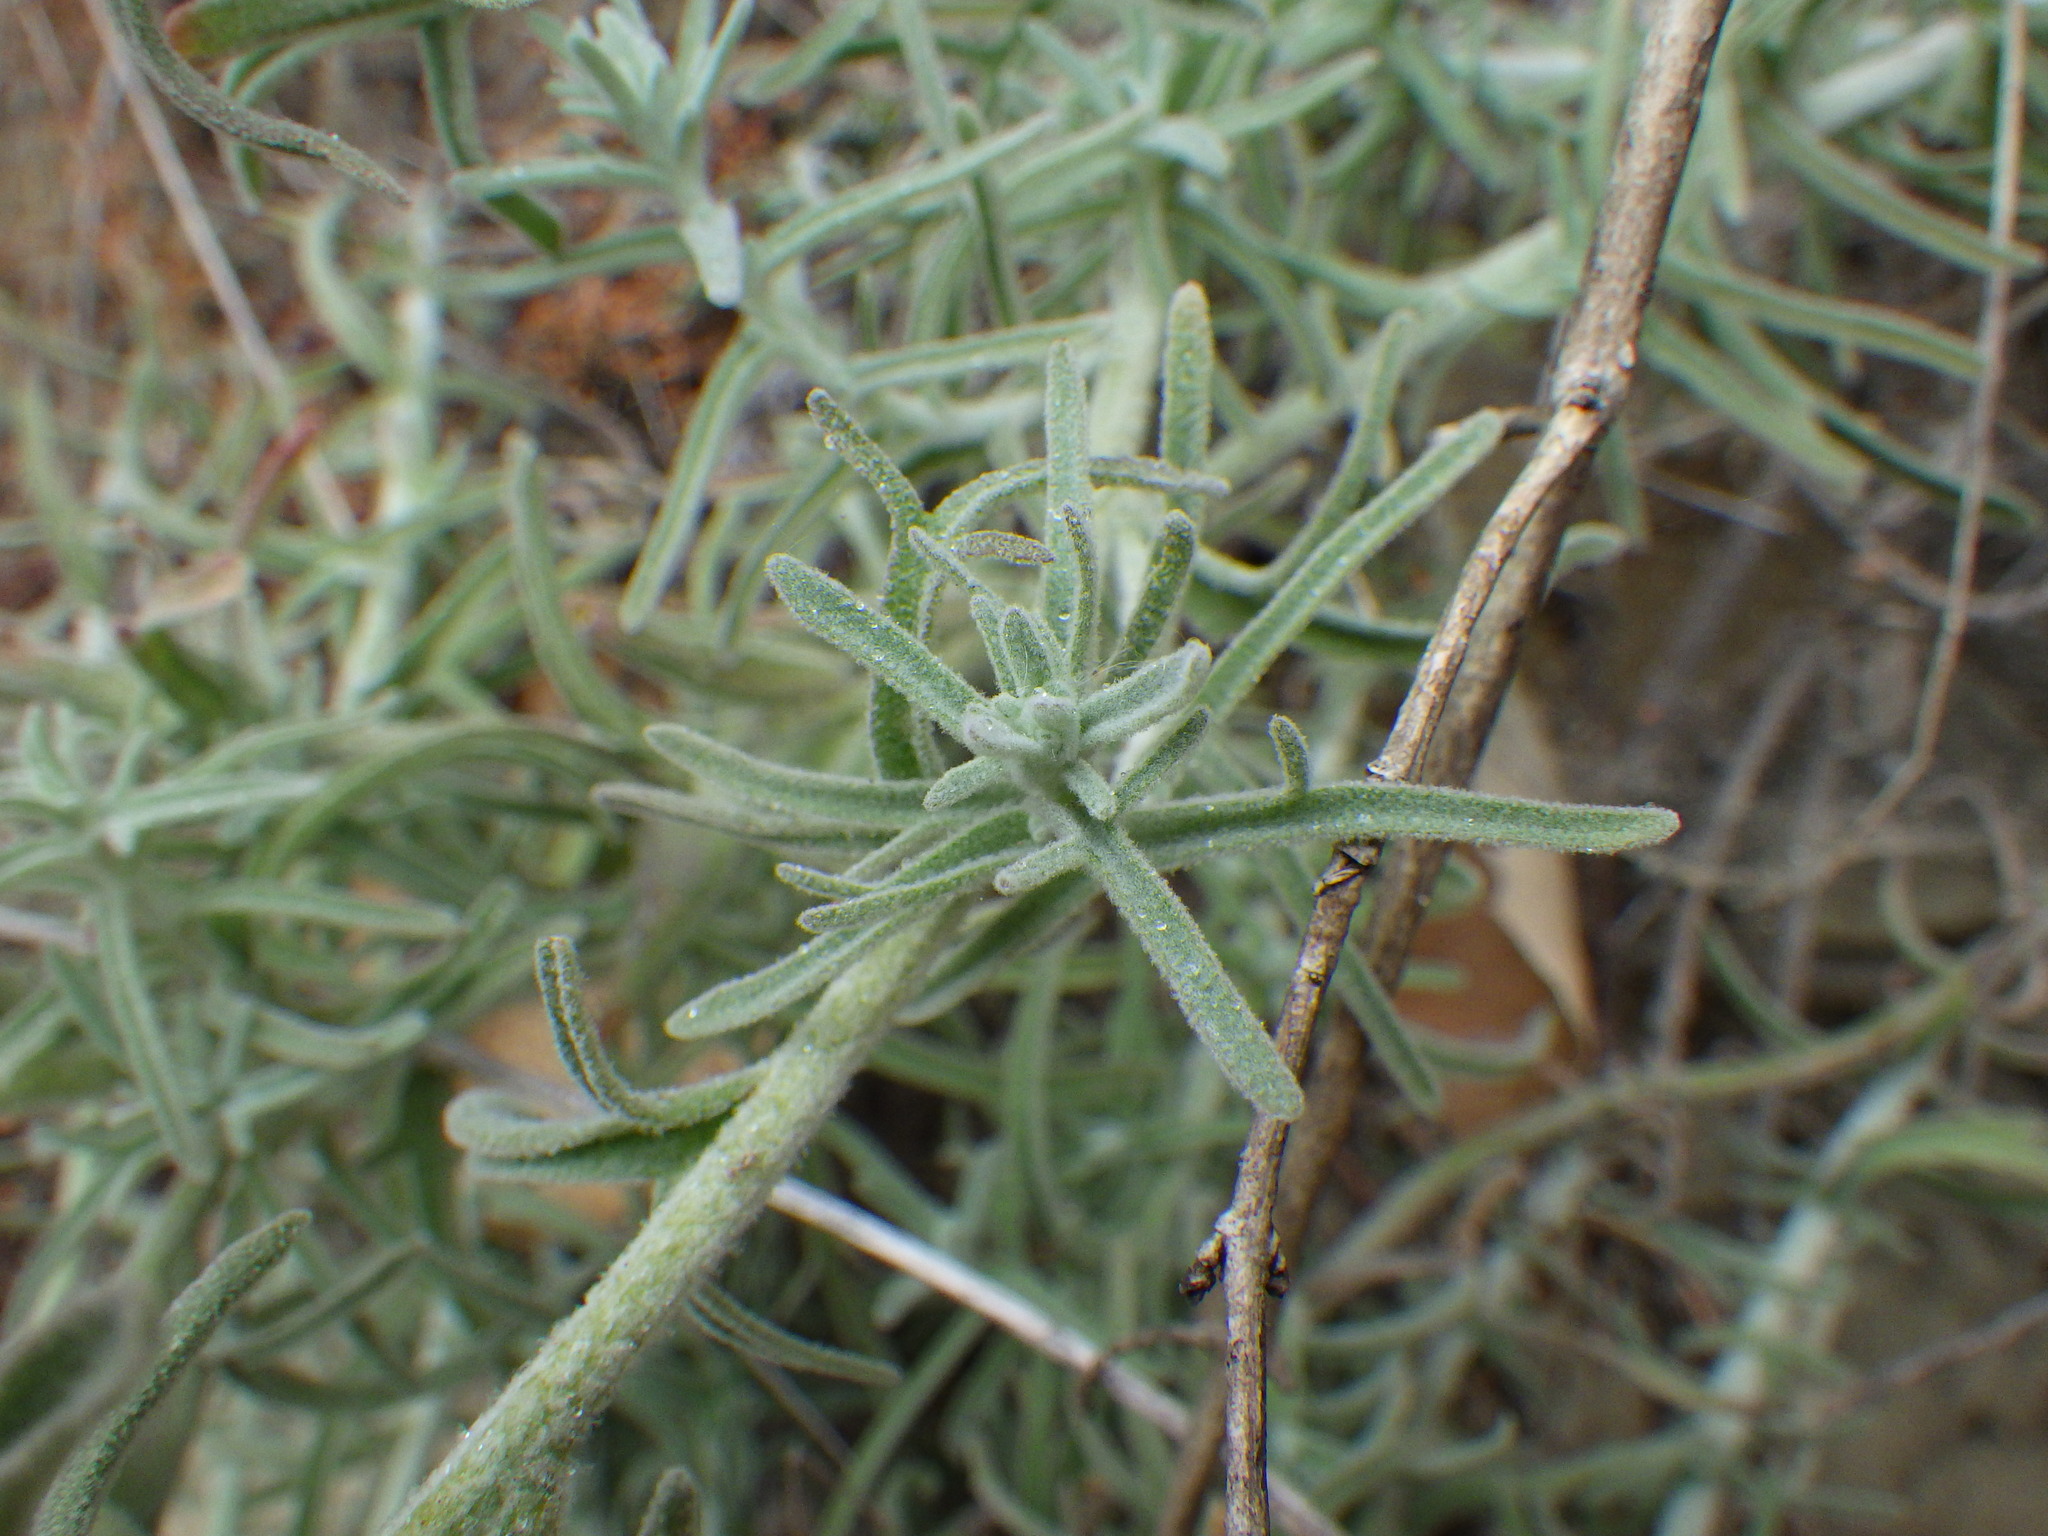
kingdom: Plantae
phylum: Tracheophyta
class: Magnoliopsida
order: Lamiales
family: Orobanchaceae
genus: Castilleja
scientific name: Castilleja foliolosa
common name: Woolly indian paintbrush
